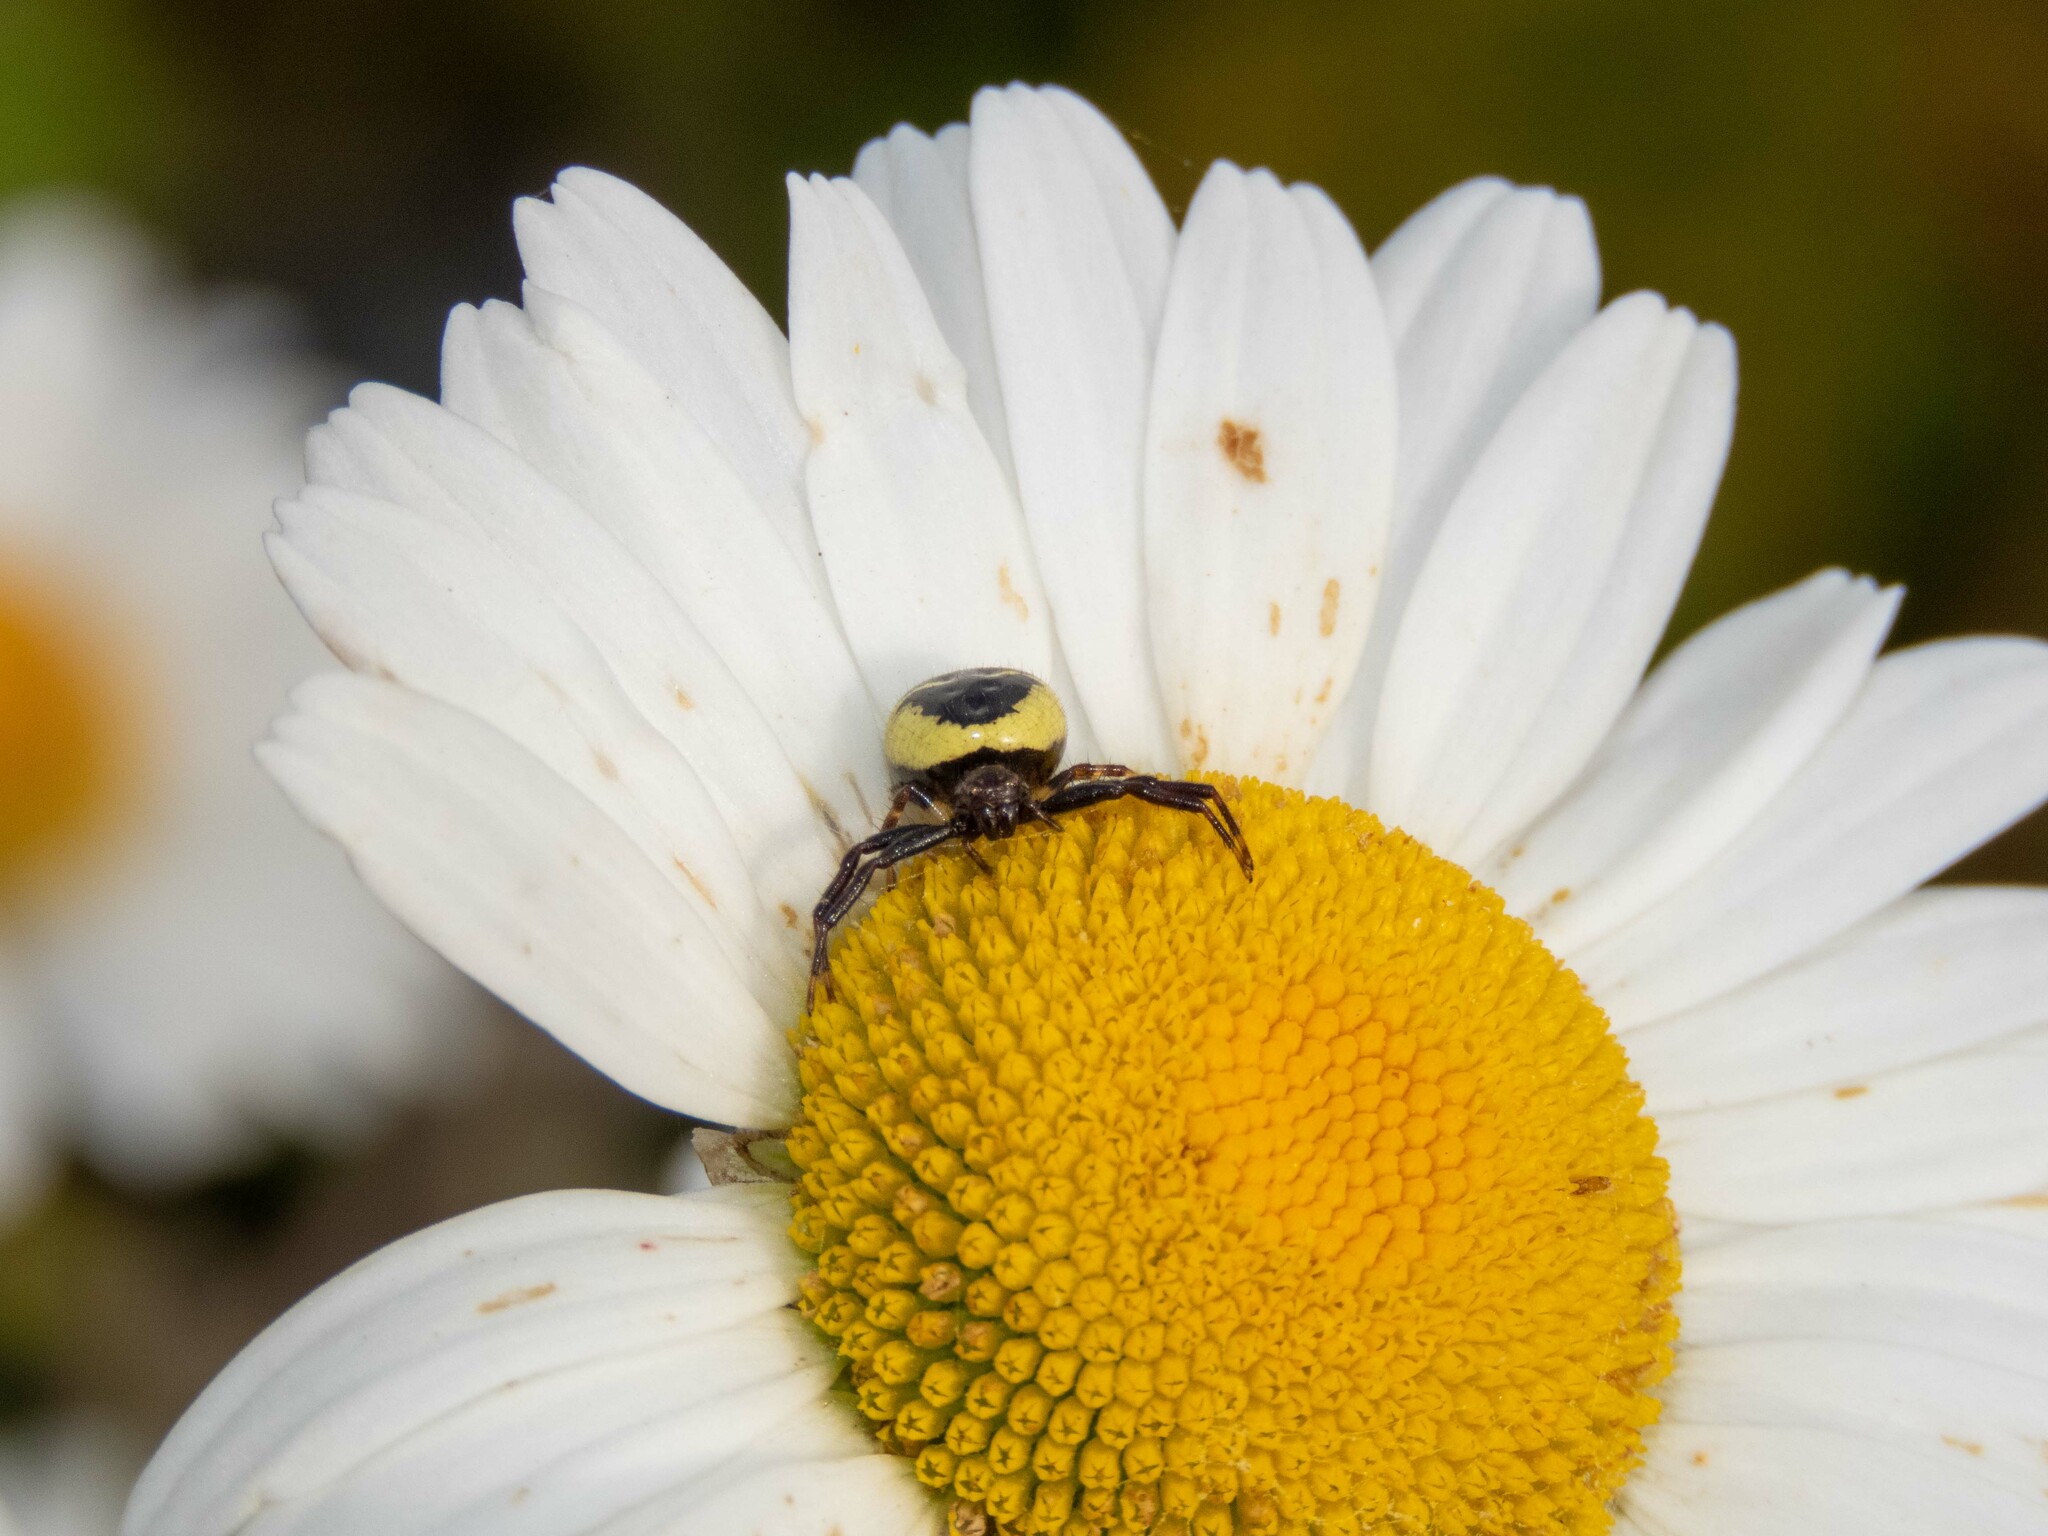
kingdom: Animalia
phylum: Arthropoda
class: Arachnida
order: Araneae
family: Thomisidae
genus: Synema
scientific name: Synema globosum
